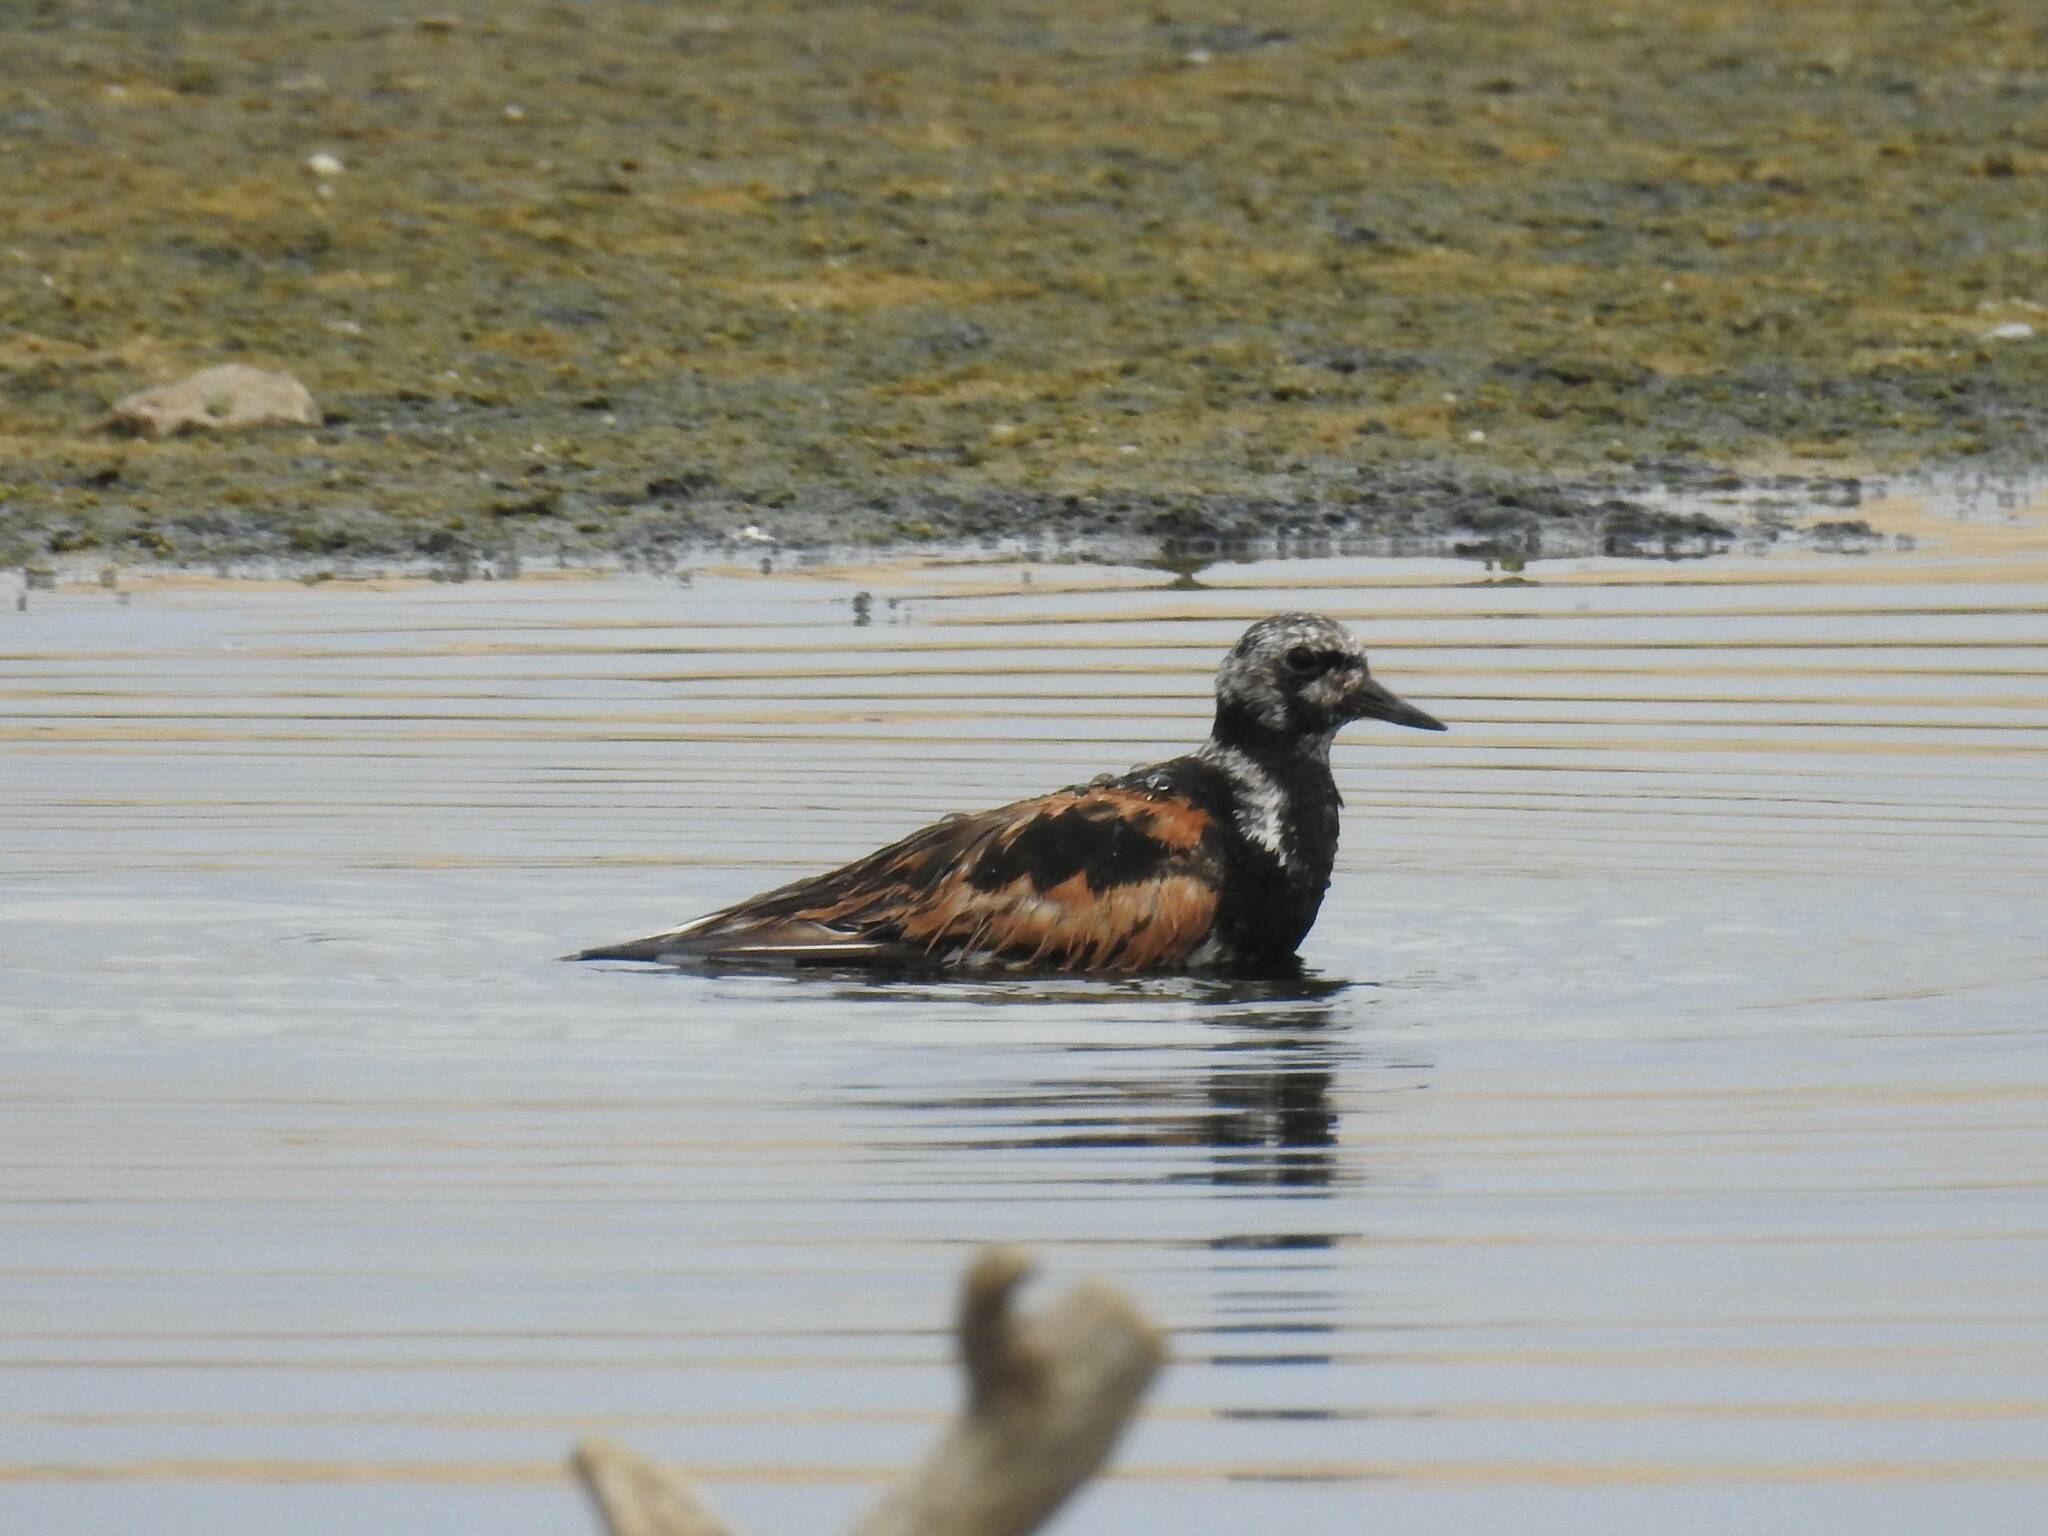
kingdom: Animalia
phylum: Chordata
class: Aves
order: Charadriiformes
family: Scolopacidae
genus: Arenaria
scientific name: Arenaria interpres
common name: Ruddy turnstone
